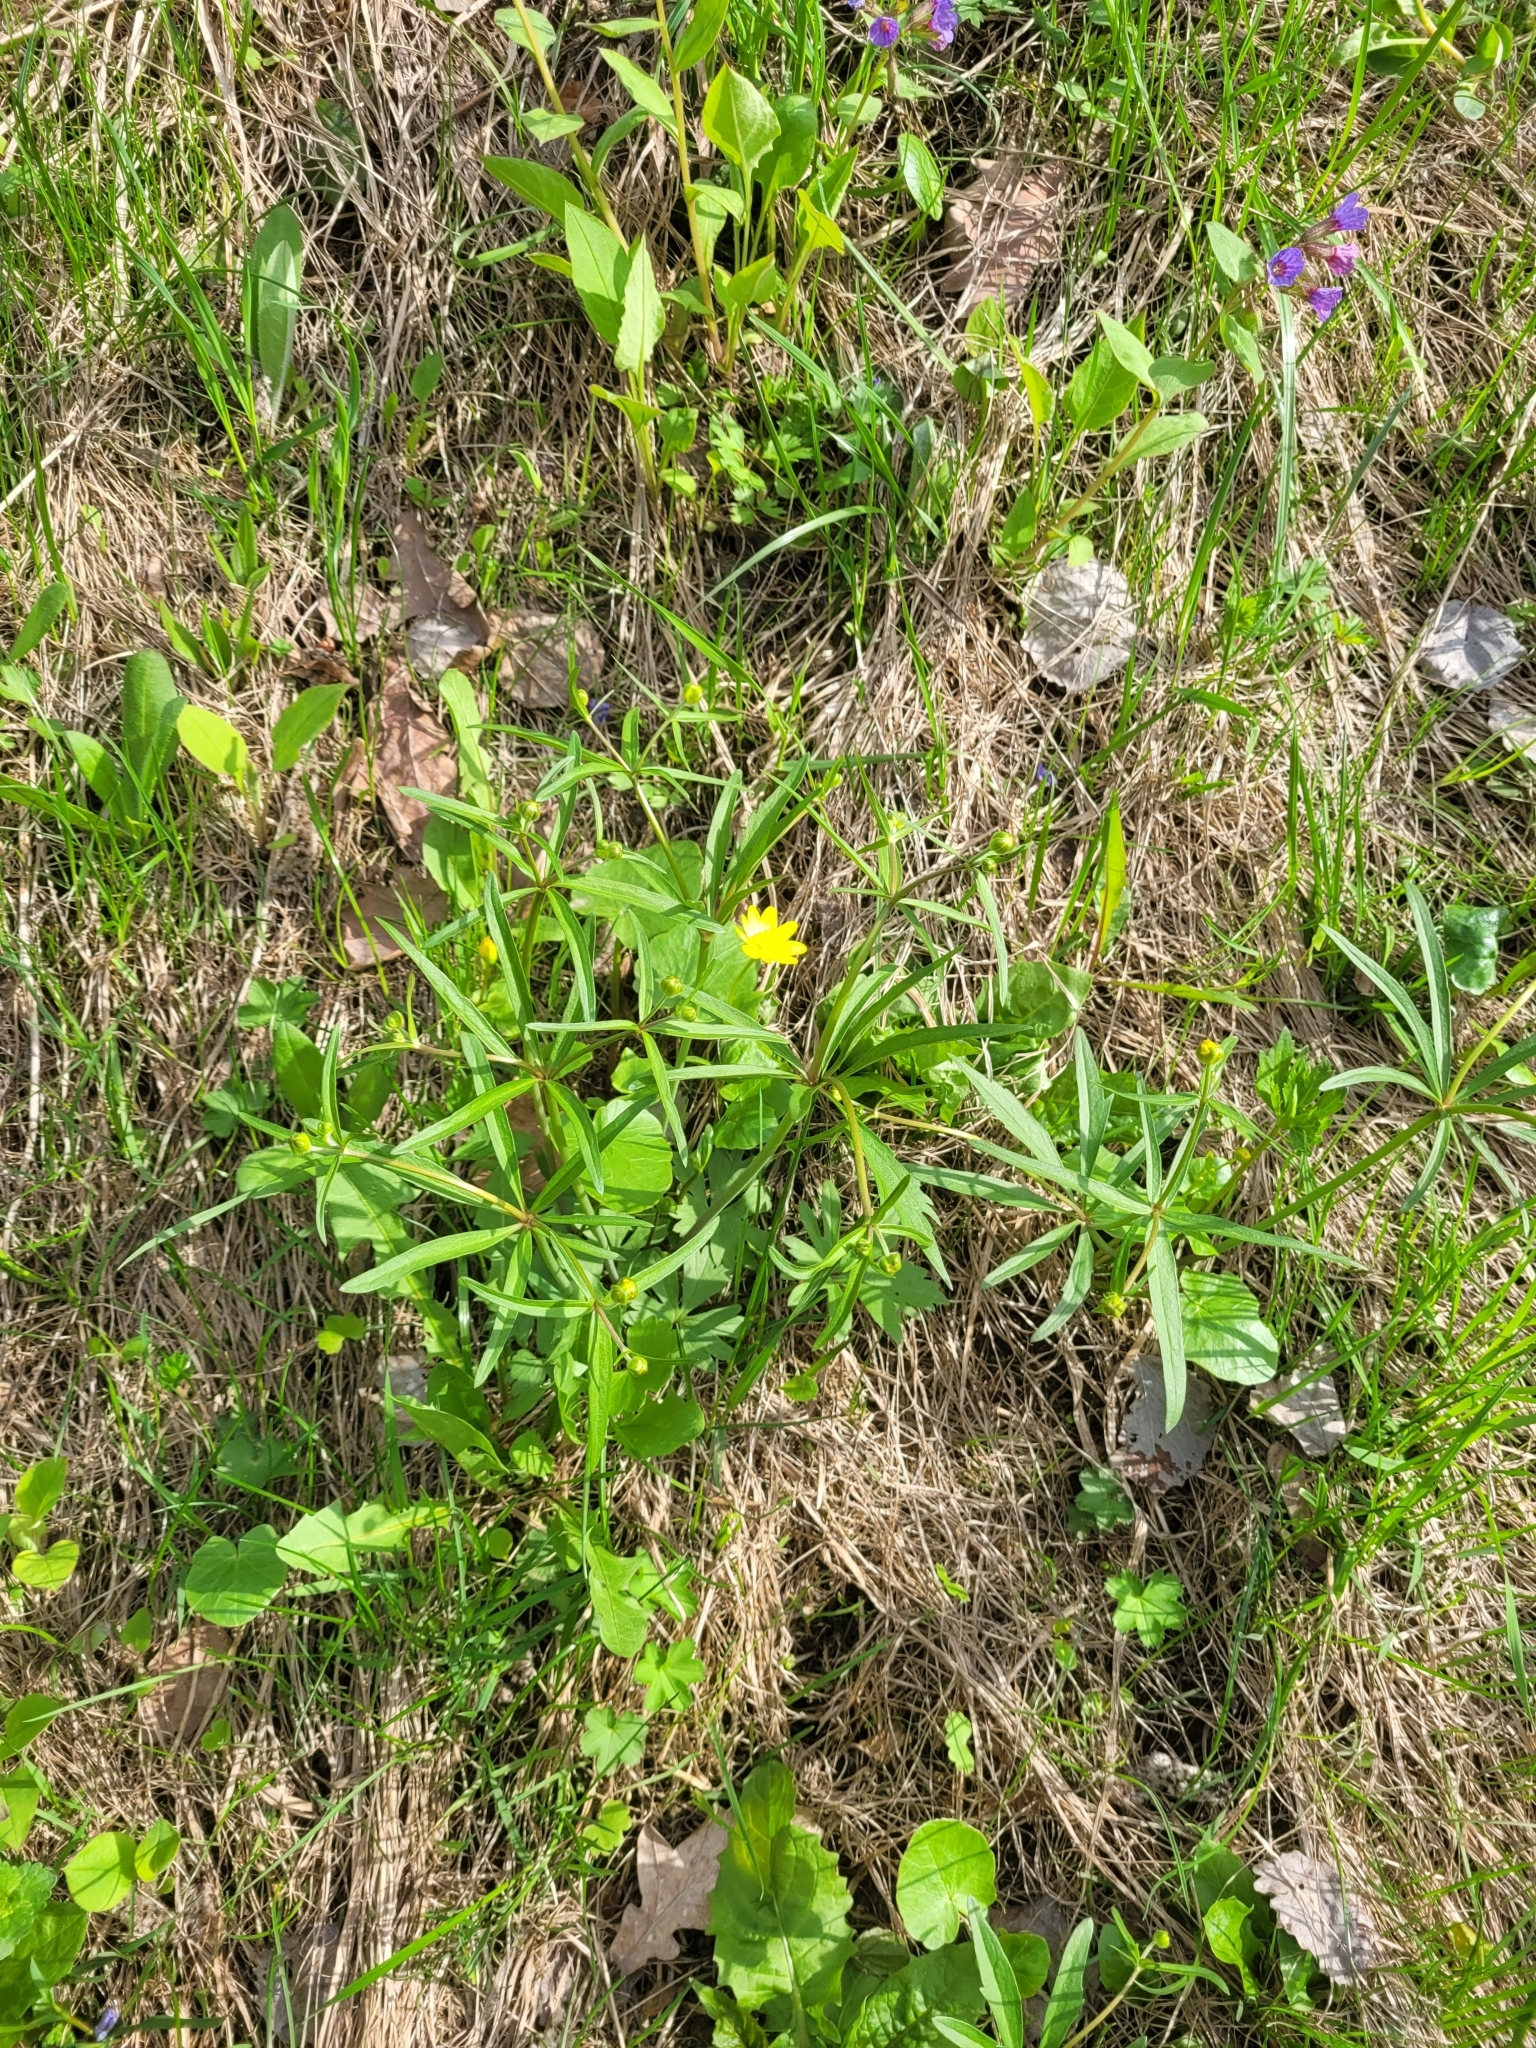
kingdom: Plantae
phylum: Tracheophyta
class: Magnoliopsida
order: Ranunculales
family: Ranunculaceae
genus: Ranunculus
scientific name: Ranunculus auricomus
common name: Goldilocks buttercup
